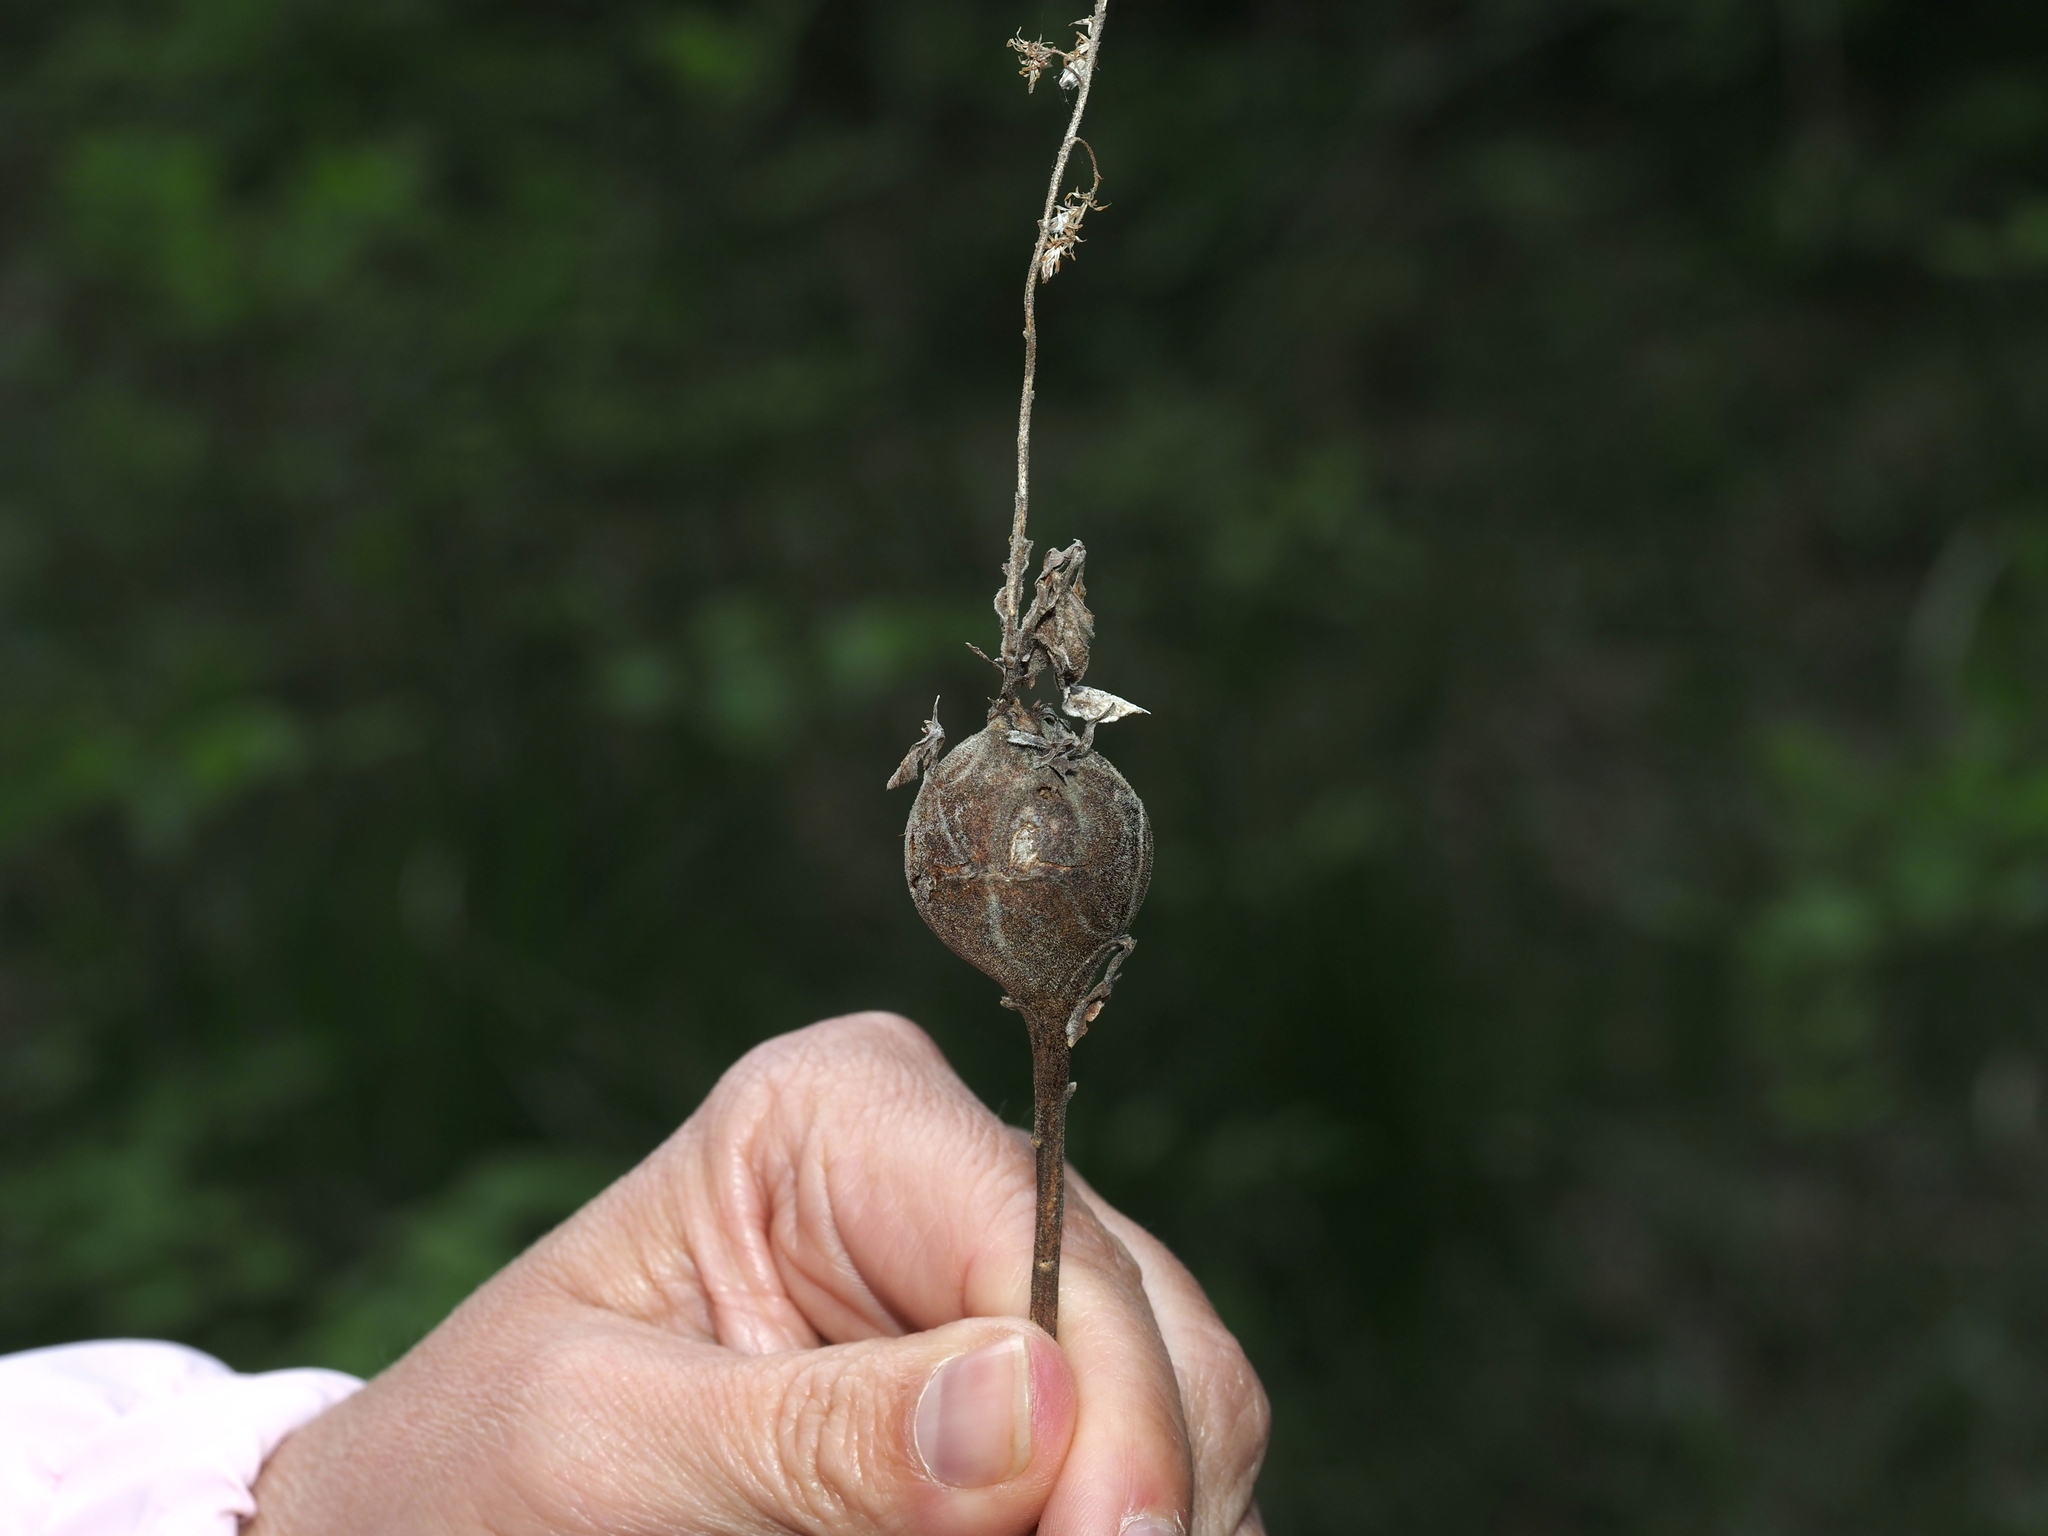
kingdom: Animalia
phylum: Arthropoda
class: Insecta
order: Diptera
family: Tephritidae
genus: Eurosta
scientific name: Eurosta solidaginis
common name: Goldenrod gall fly
